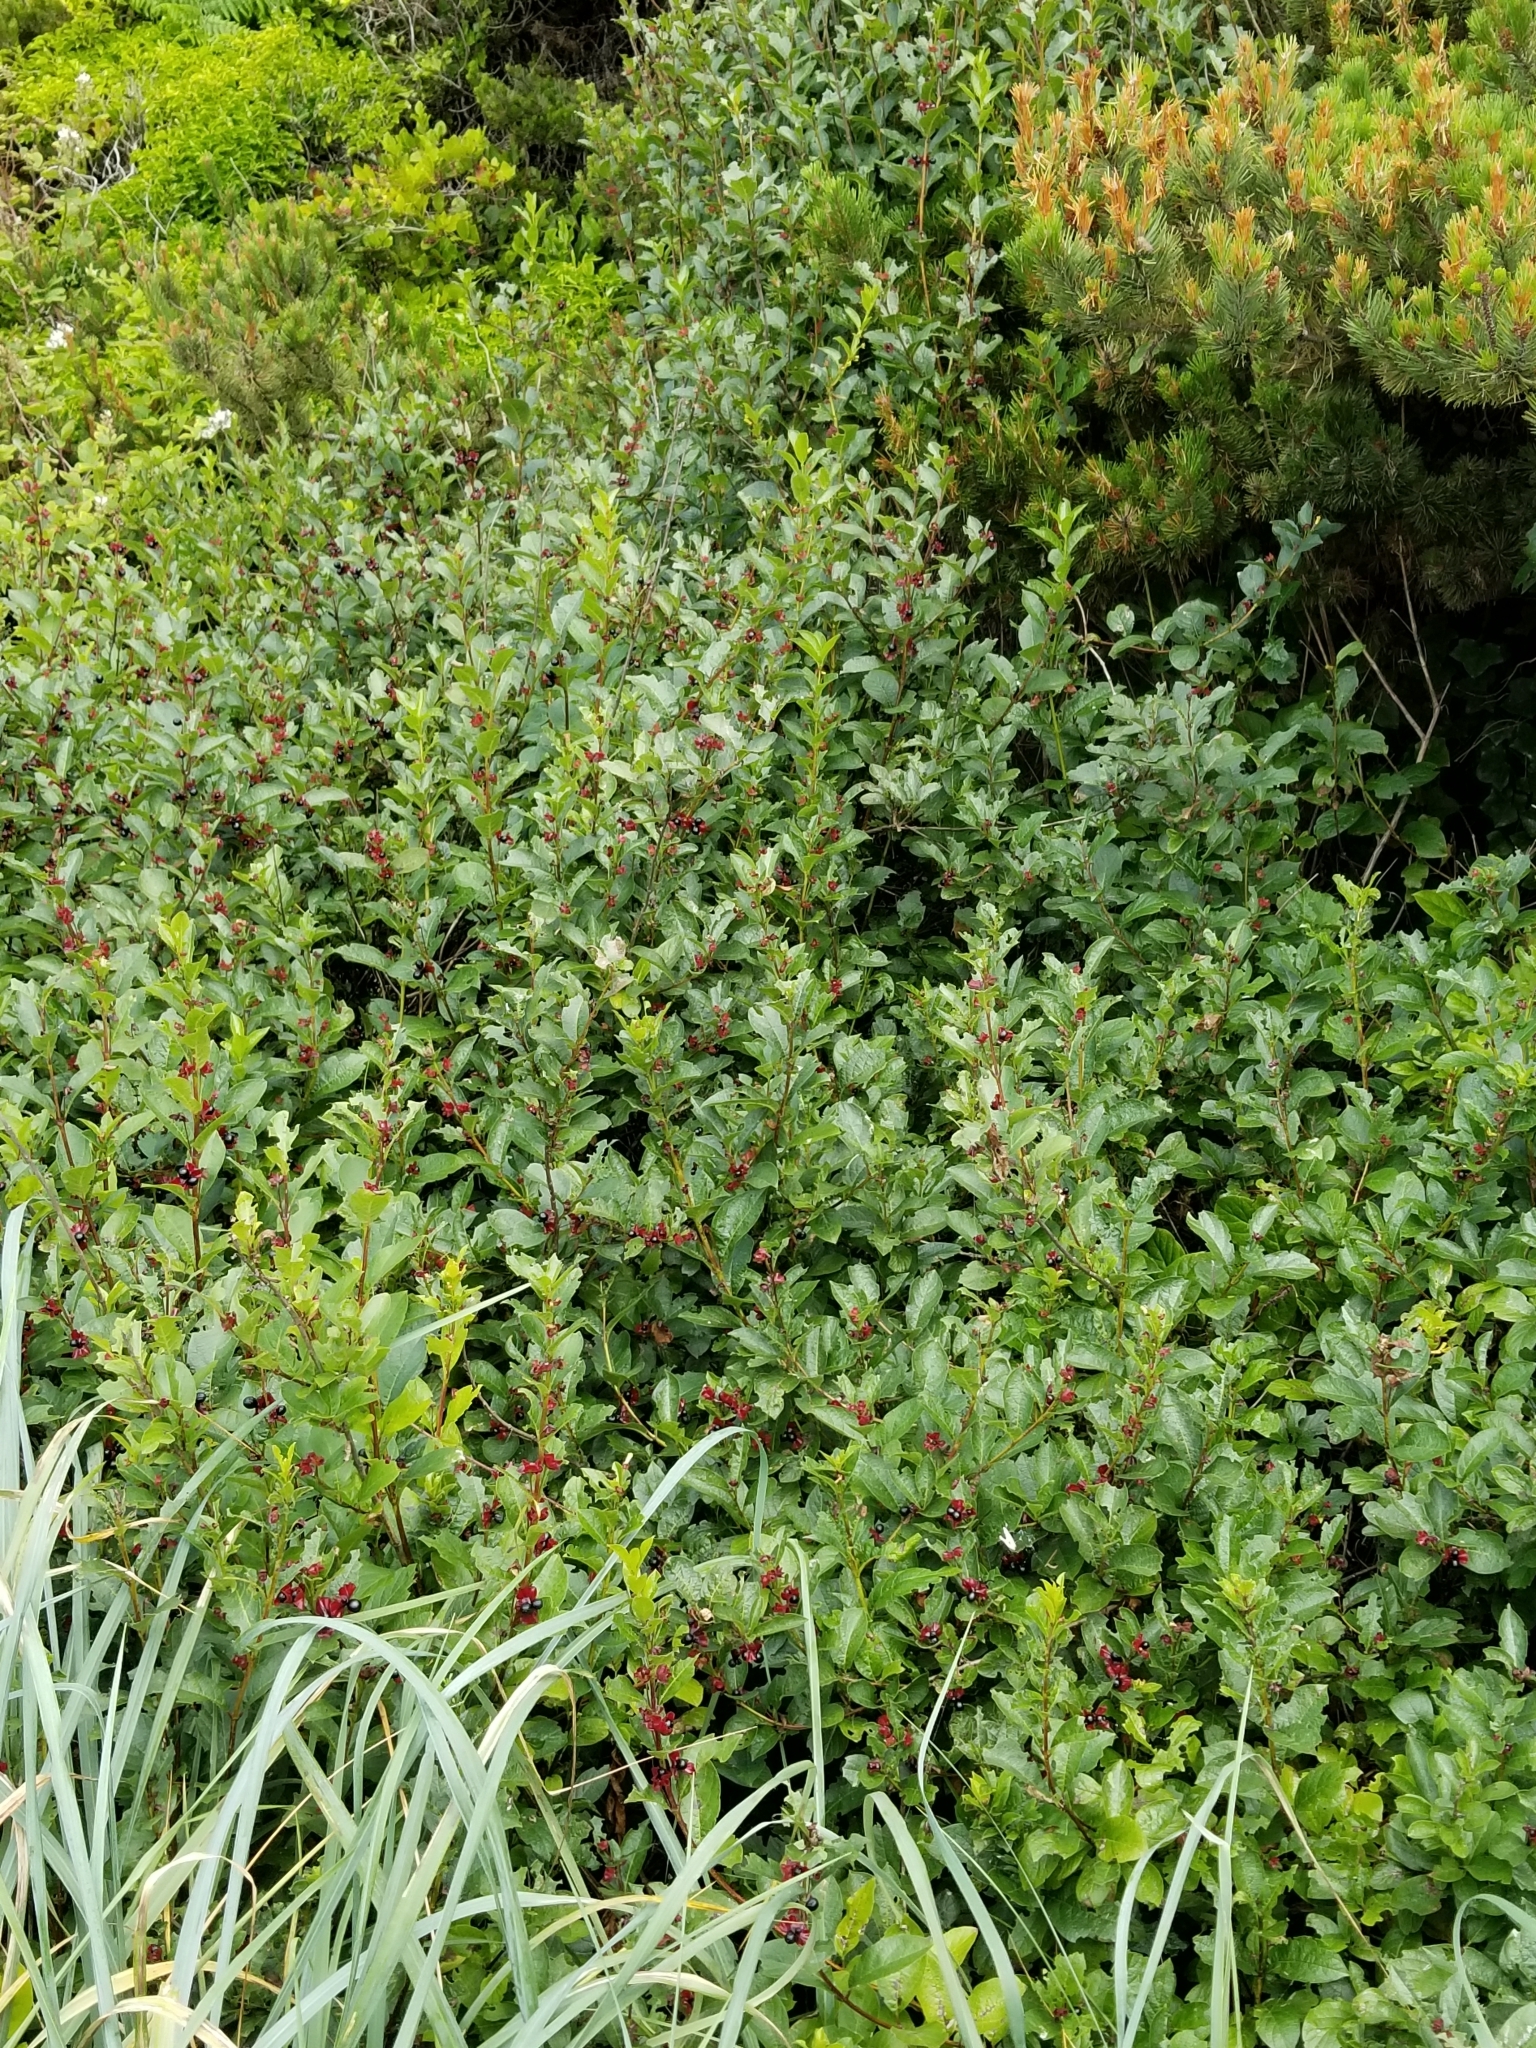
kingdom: Plantae
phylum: Tracheophyta
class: Magnoliopsida
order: Dipsacales
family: Caprifoliaceae
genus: Lonicera
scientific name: Lonicera involucrata
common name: Californian honeysuckle
